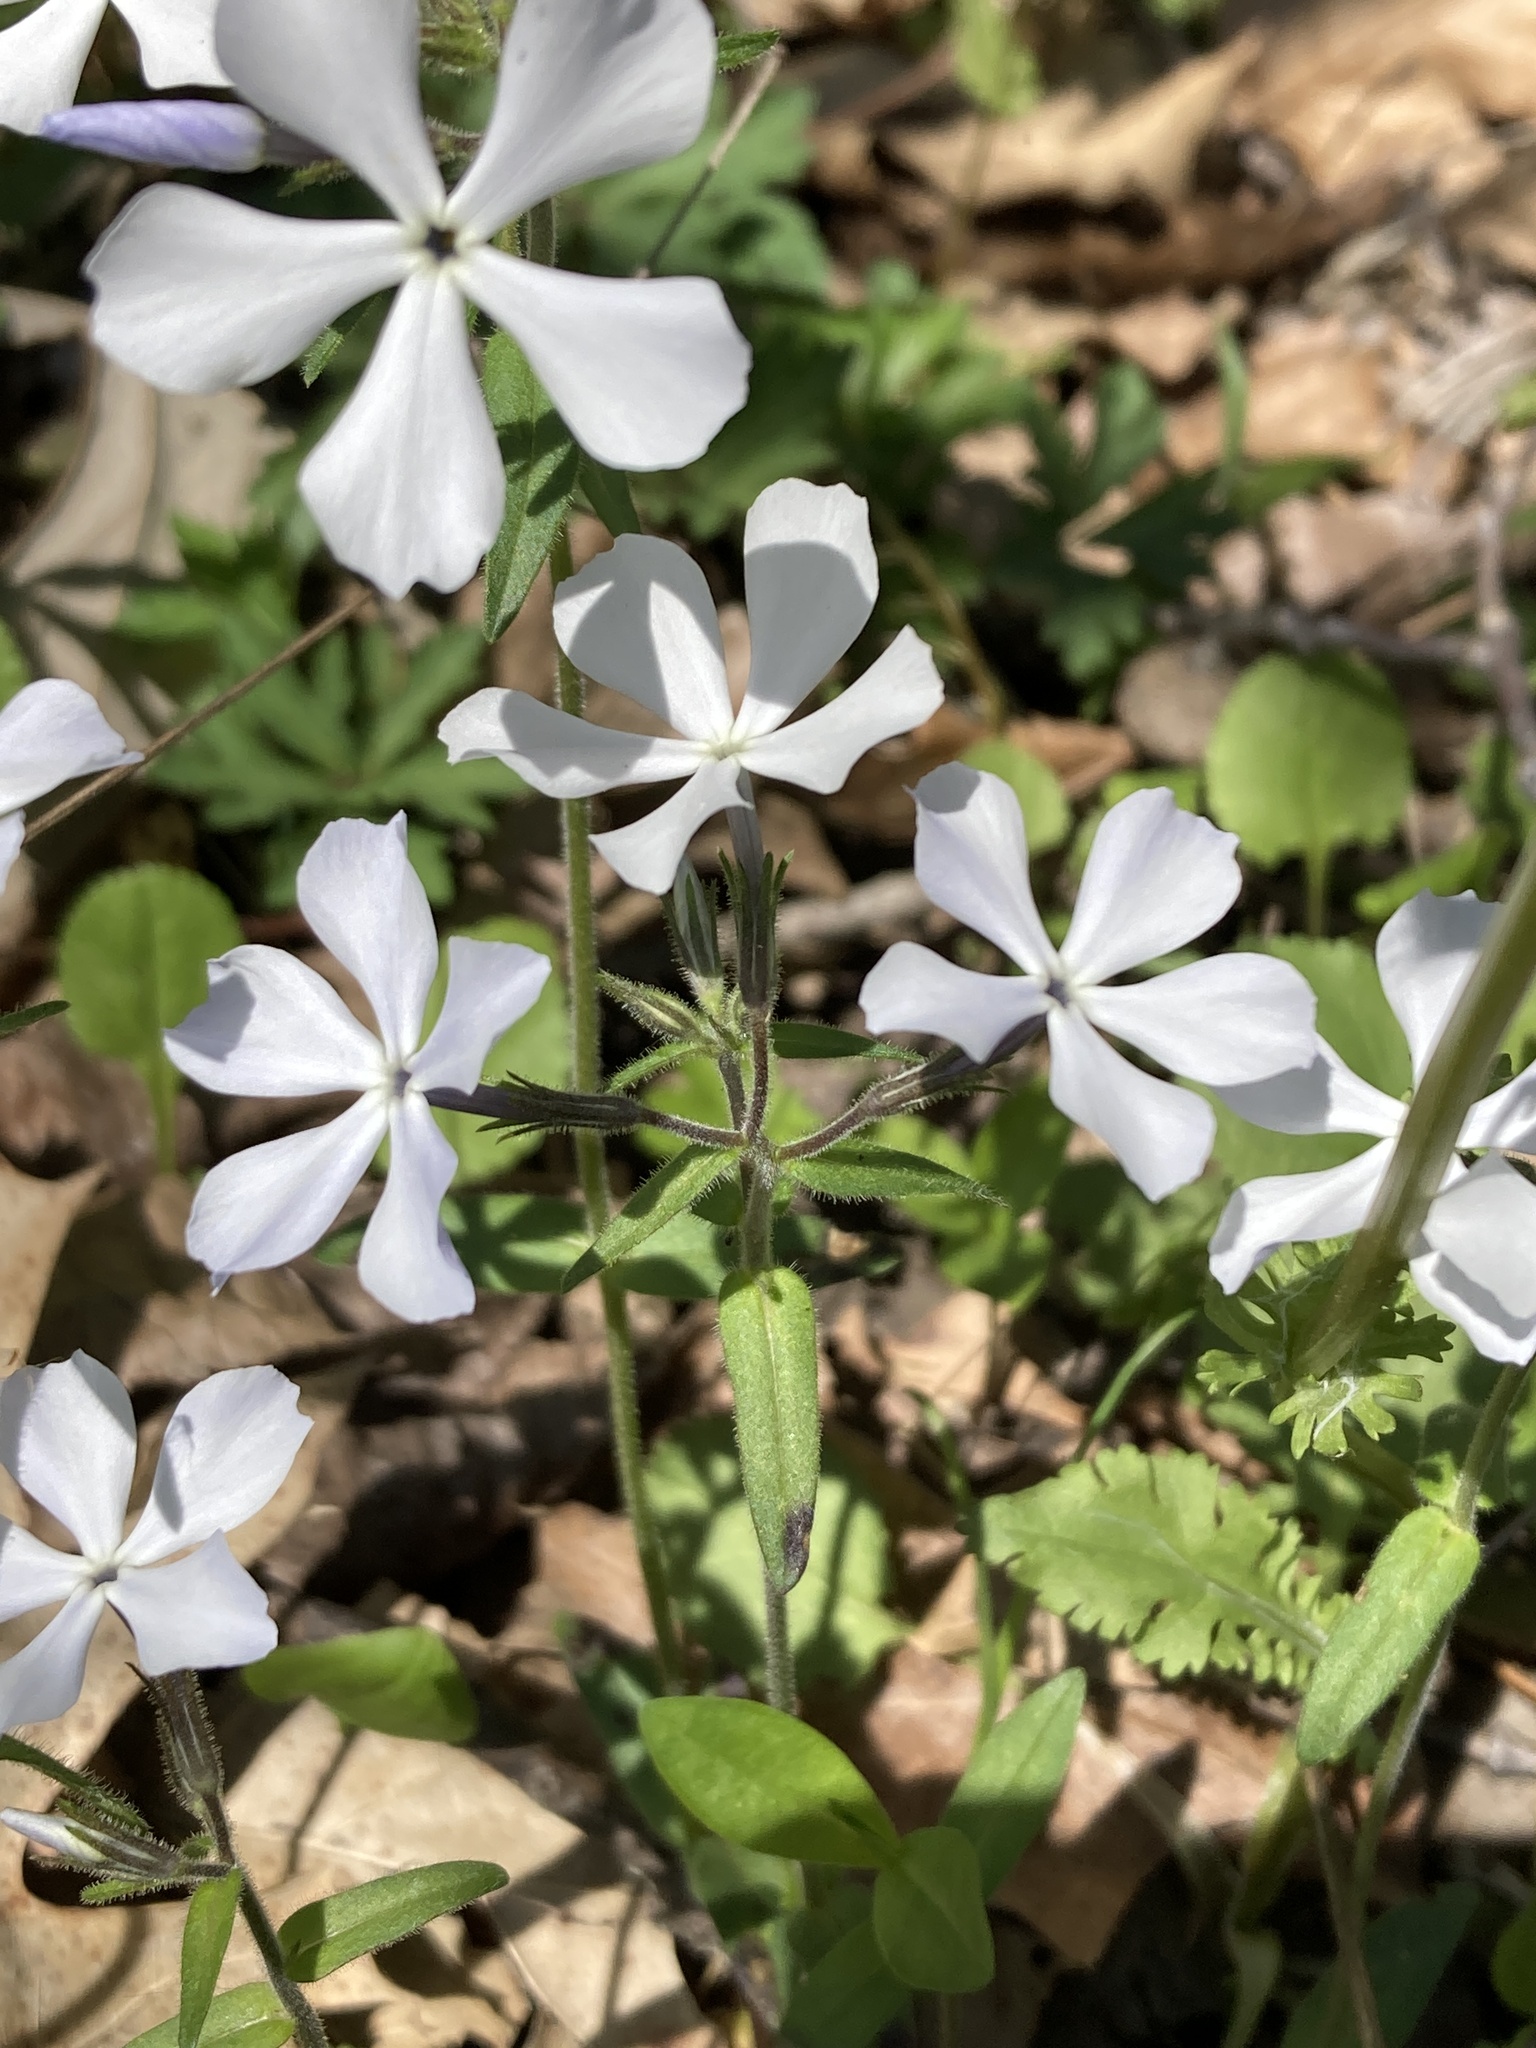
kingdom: Plantae
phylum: Tracheophyta
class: Magnoliopsida
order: Ericales
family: Polemoniaceae
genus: Phlox
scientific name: Phlox divaricata
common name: Blue phlox
